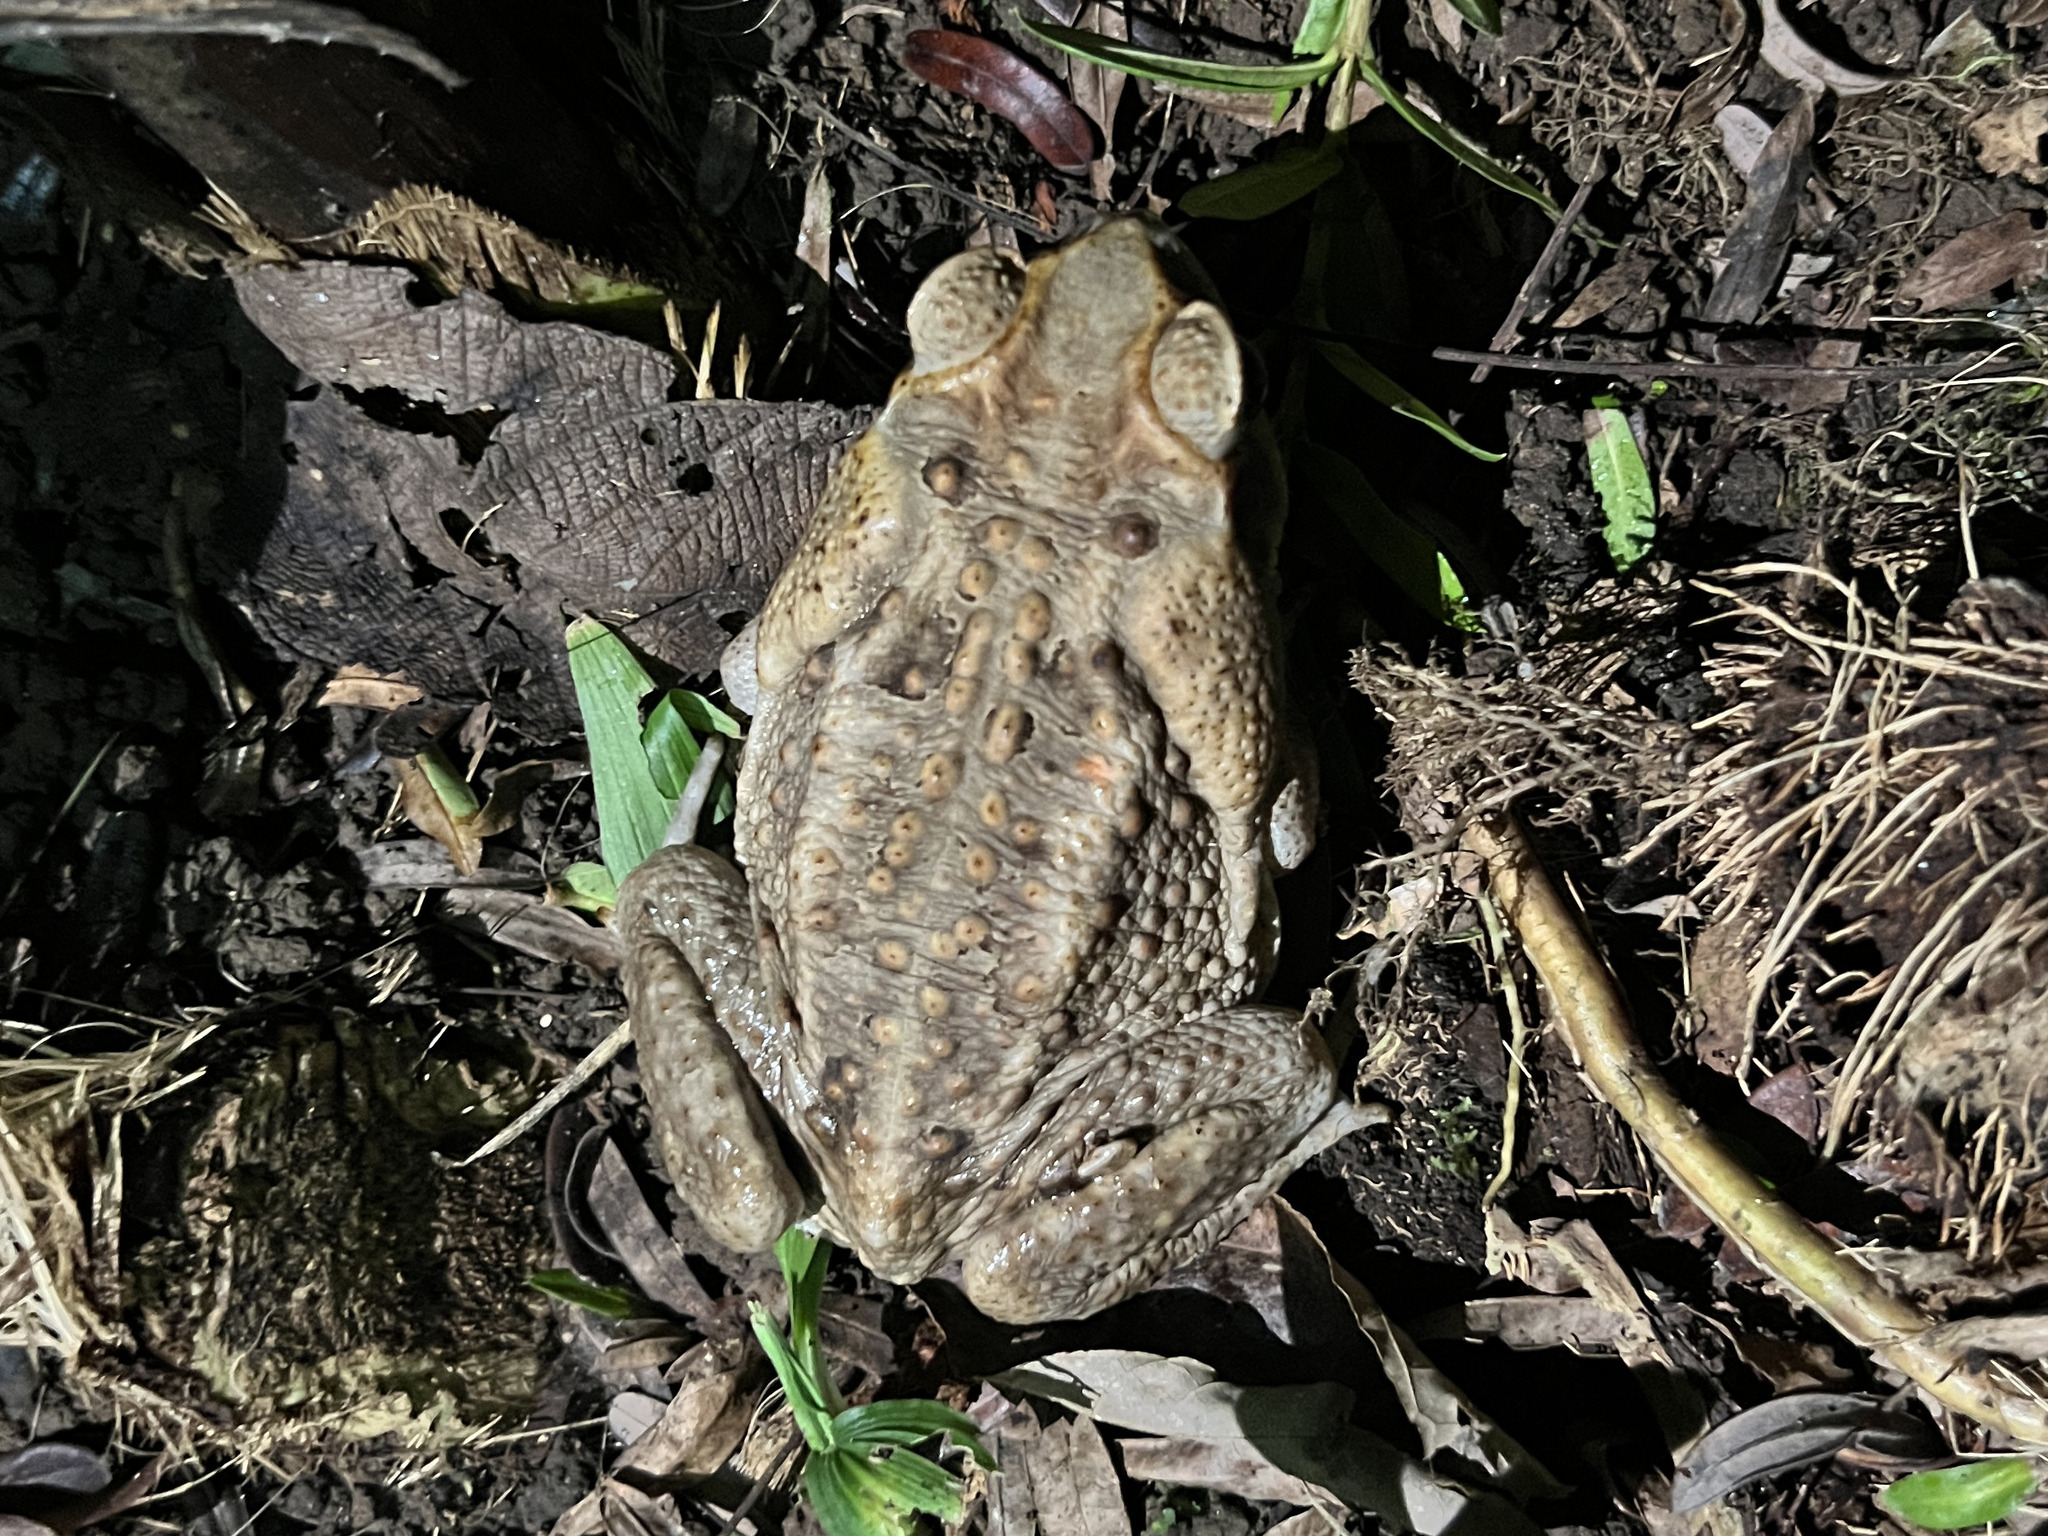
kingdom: Animalia
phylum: Chordata
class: Amphibia
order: Anura
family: Bufonidae
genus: Rhinella
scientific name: Rhinella horribilis
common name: Mesoamerican cane toad
